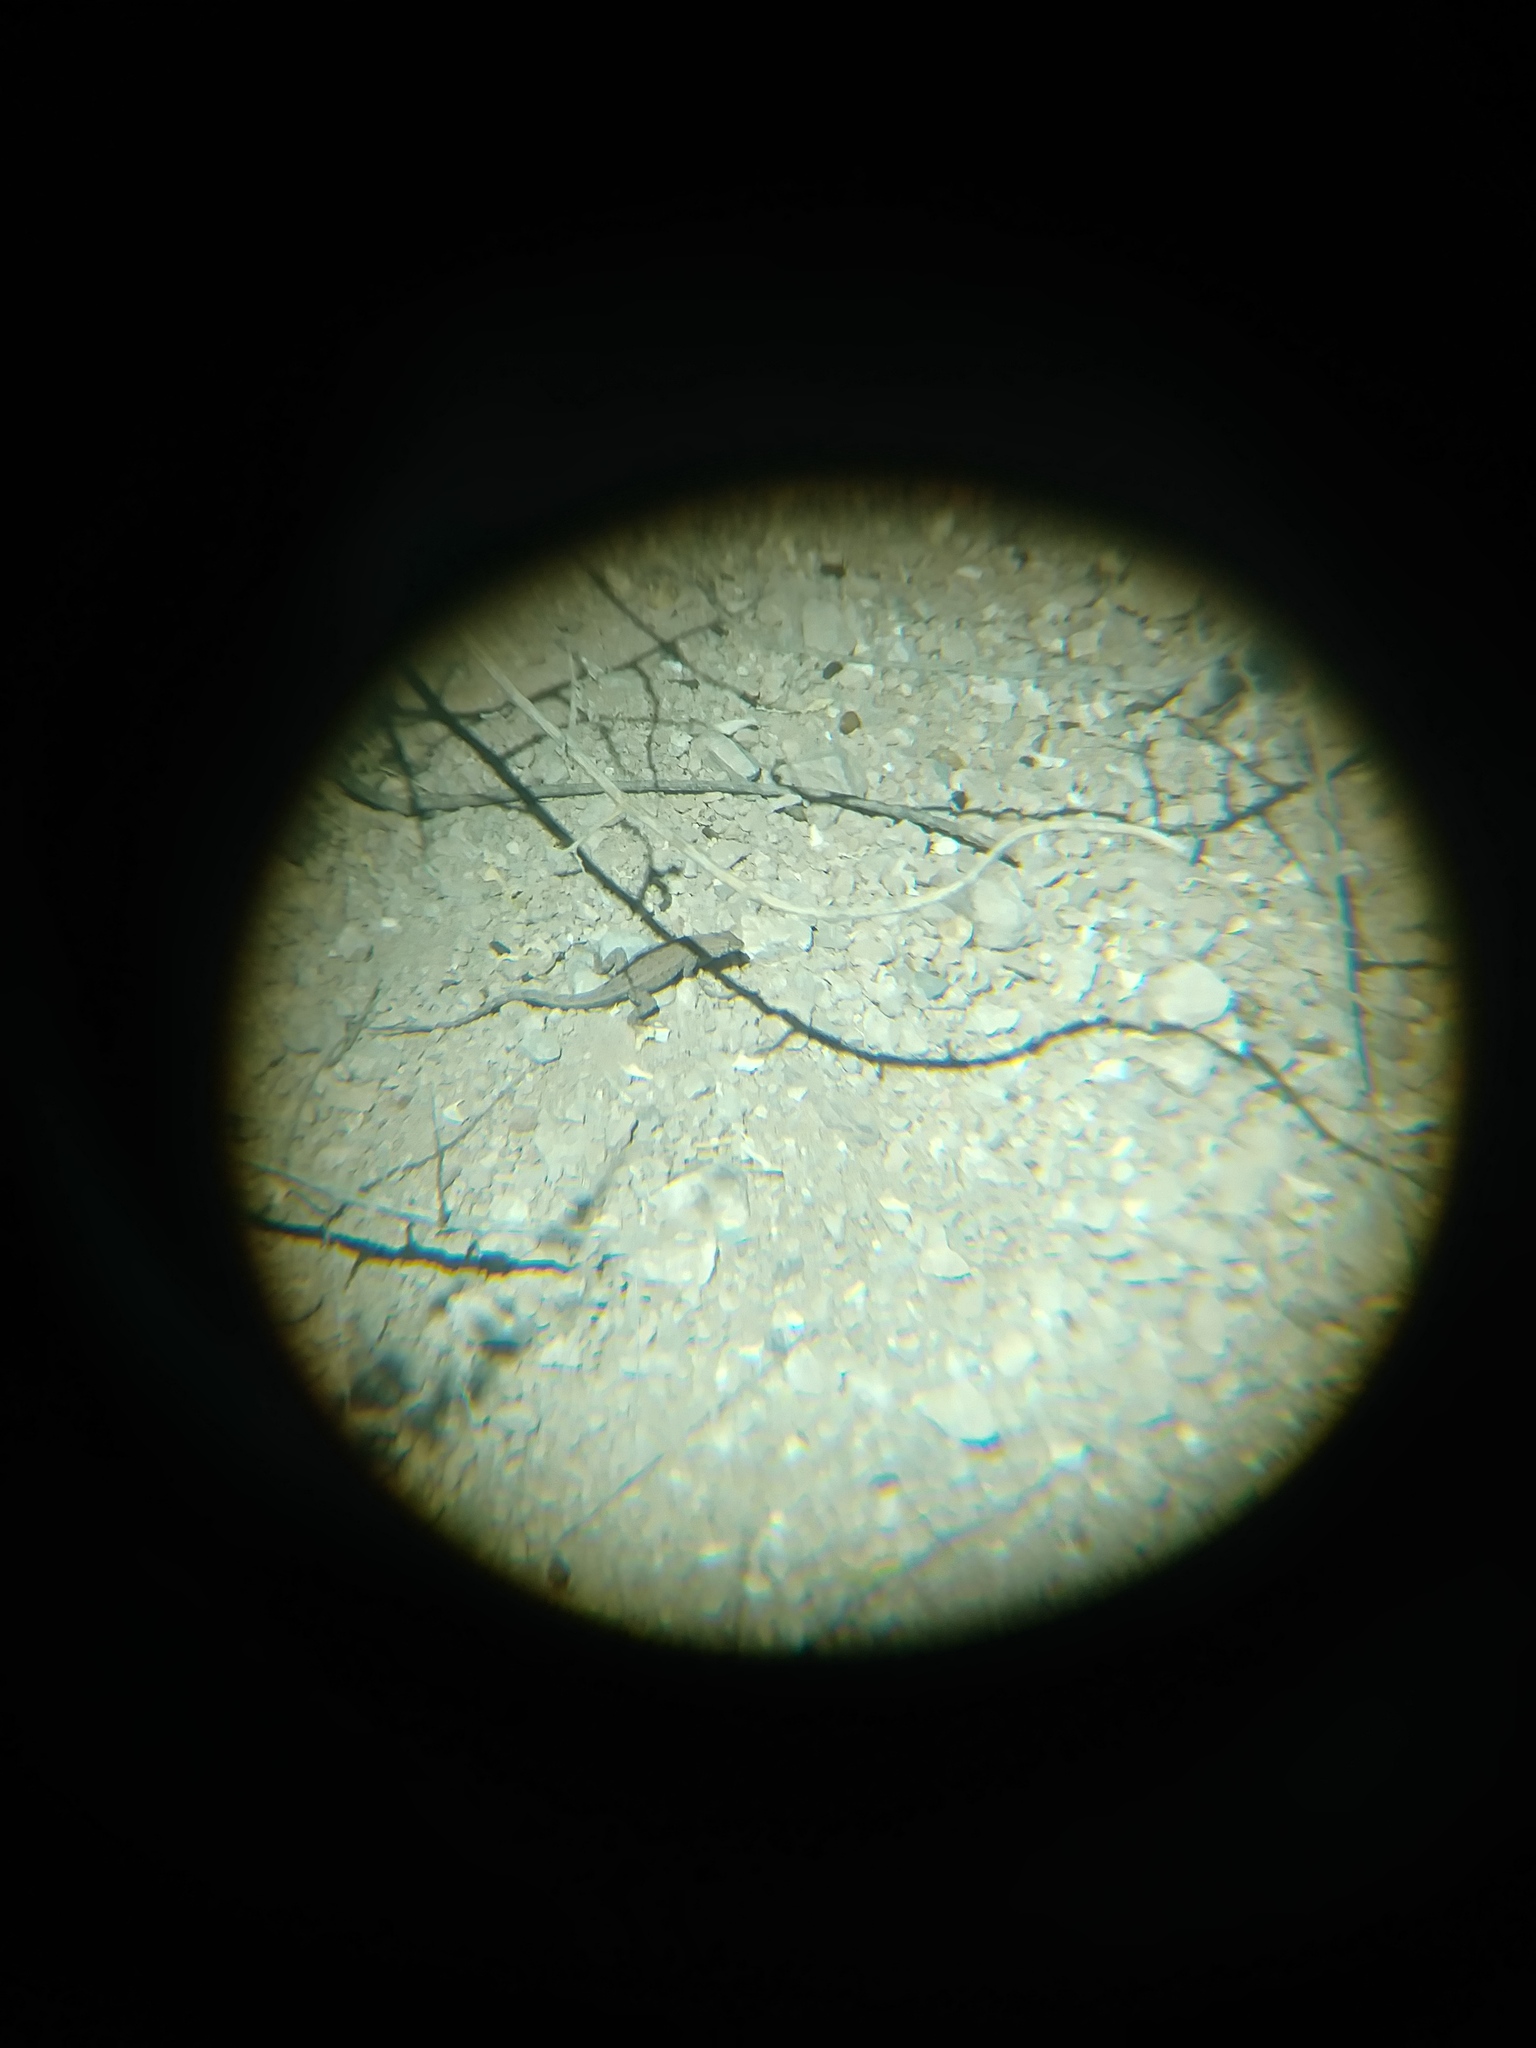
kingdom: Animalia
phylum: Chordata
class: Squamata
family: Phrynosomatidae
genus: Uta
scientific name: Uta stansburiana
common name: Side-blotched lizard
